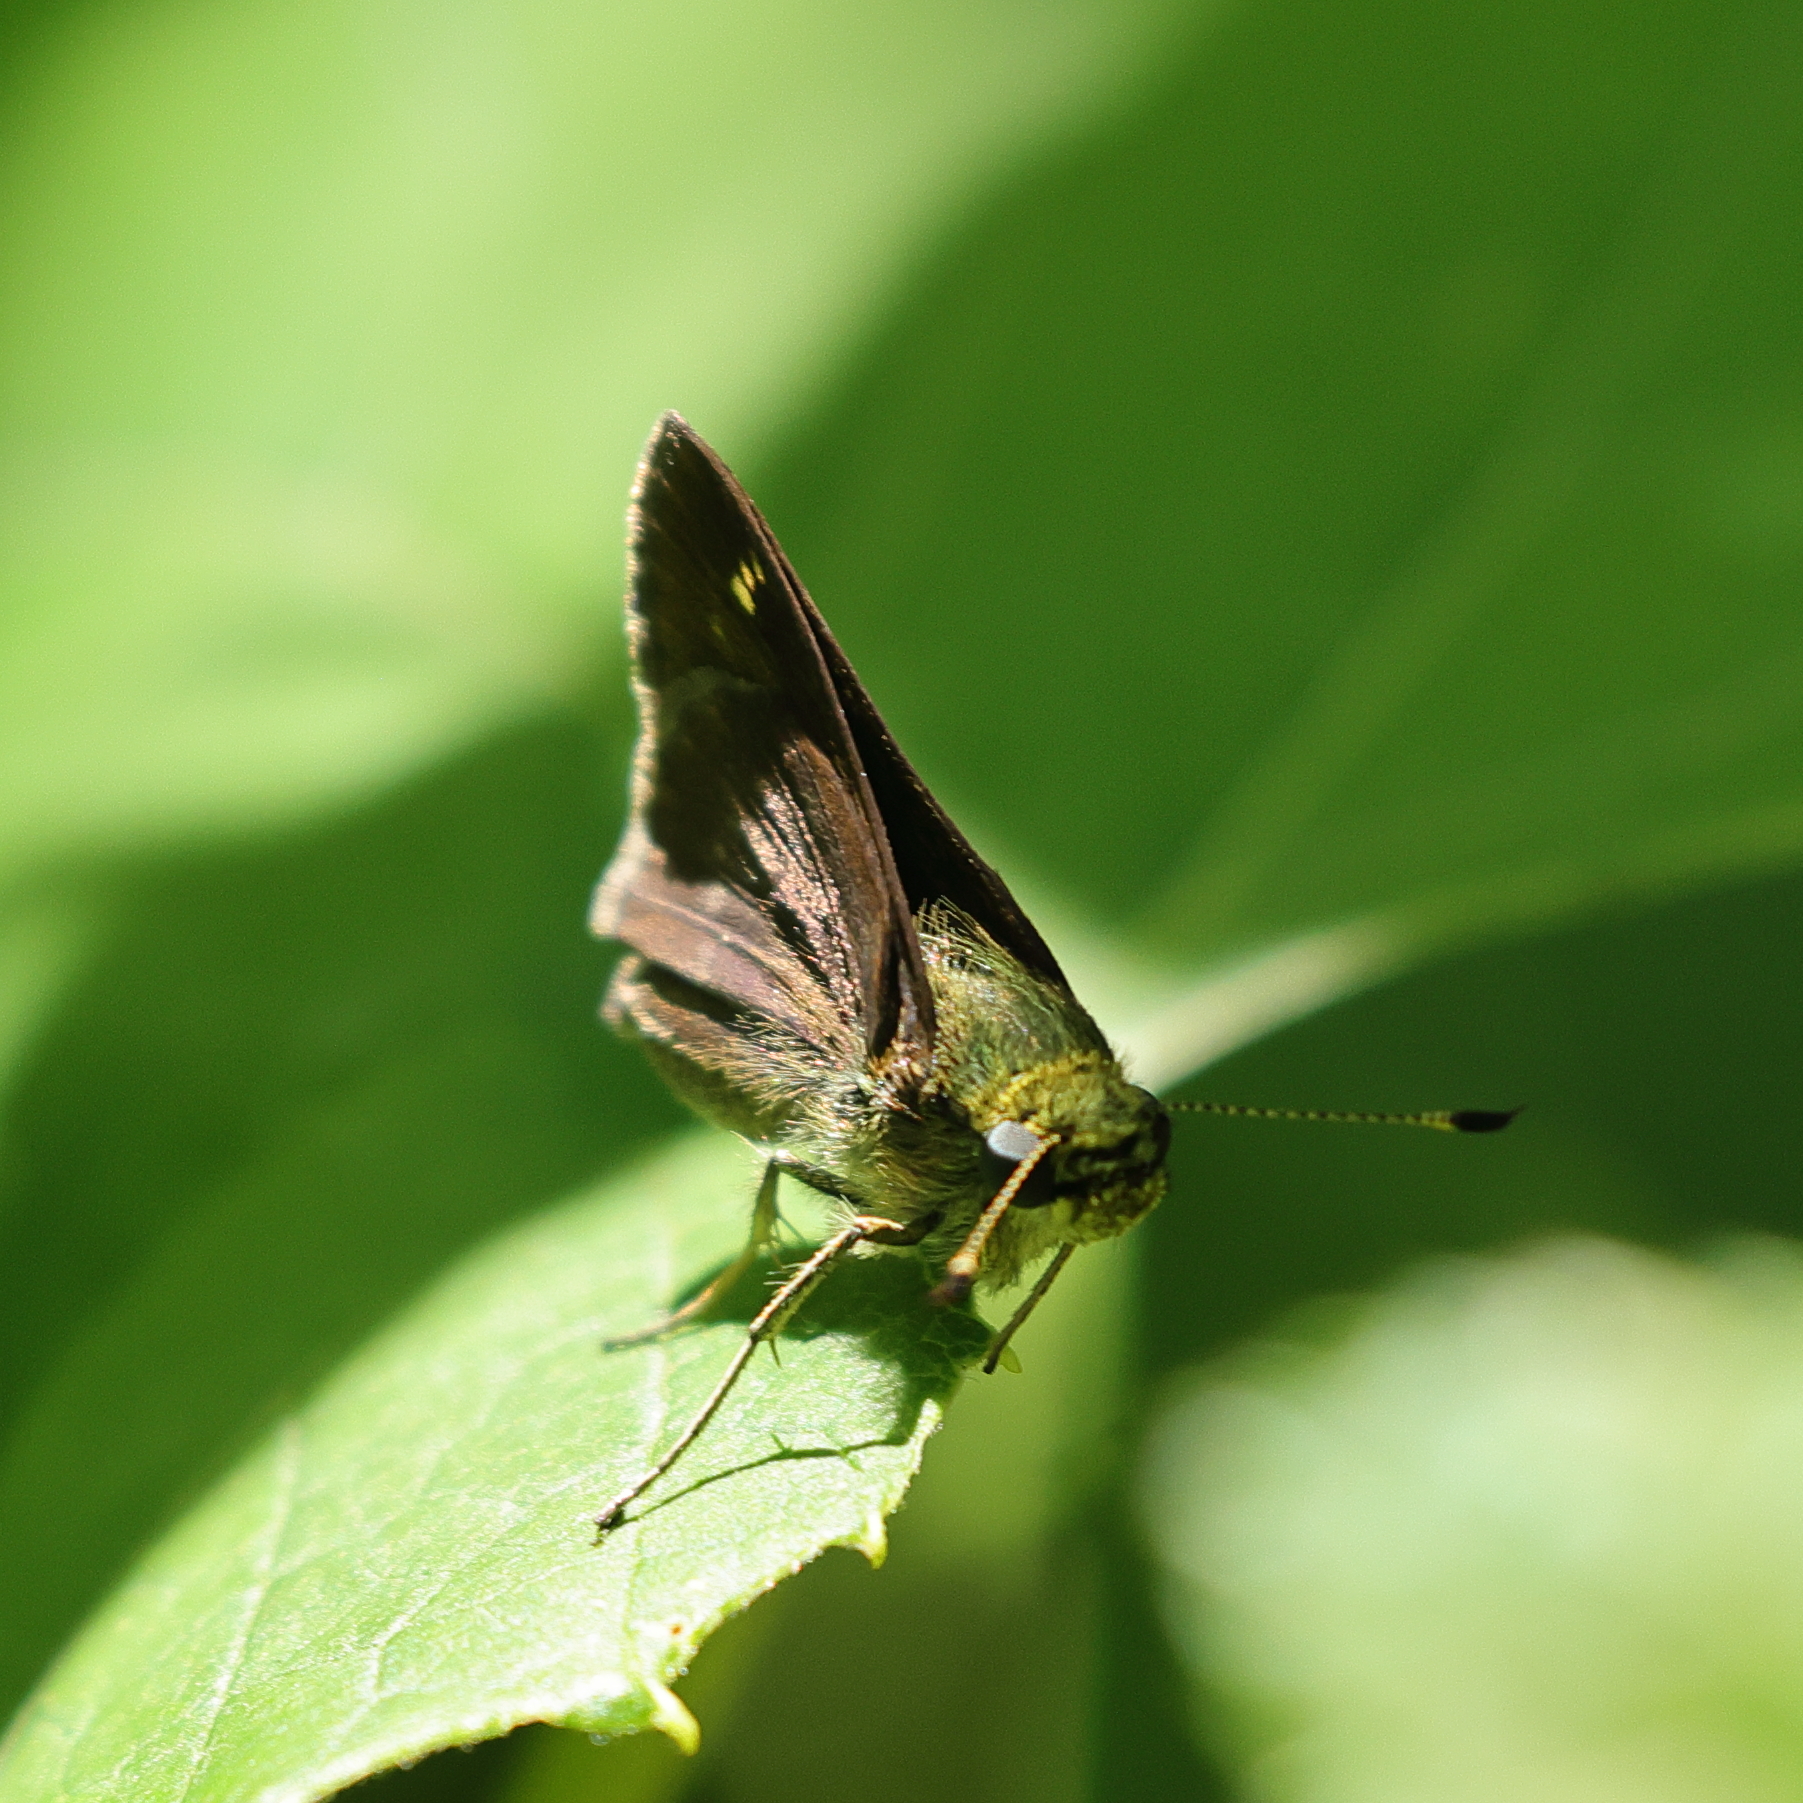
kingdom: Animalia
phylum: Arthropoda
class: Insecta
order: Lepidoptera
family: Hesperiidae
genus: Vernia
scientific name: Vernia verna
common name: Little glassywing
